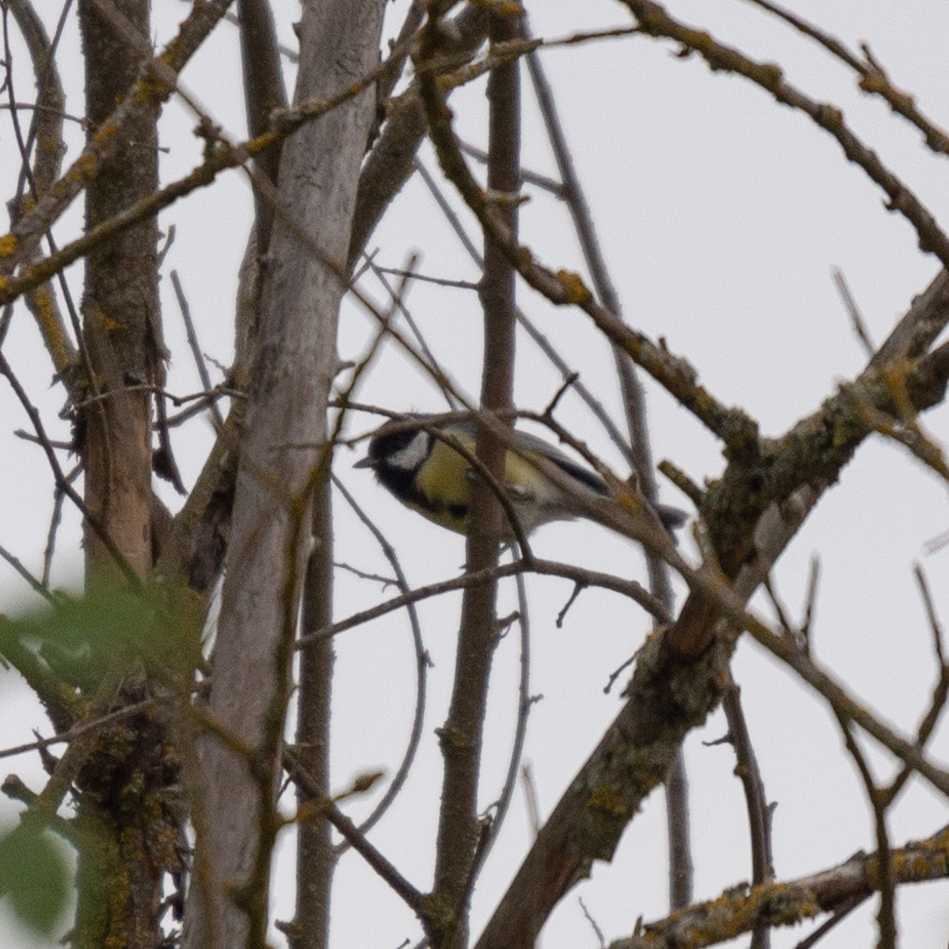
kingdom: Animalia
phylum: Chordata
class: Aves
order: Passeriformes
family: Paridae
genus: Parus
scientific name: Parus major
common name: Great tit
